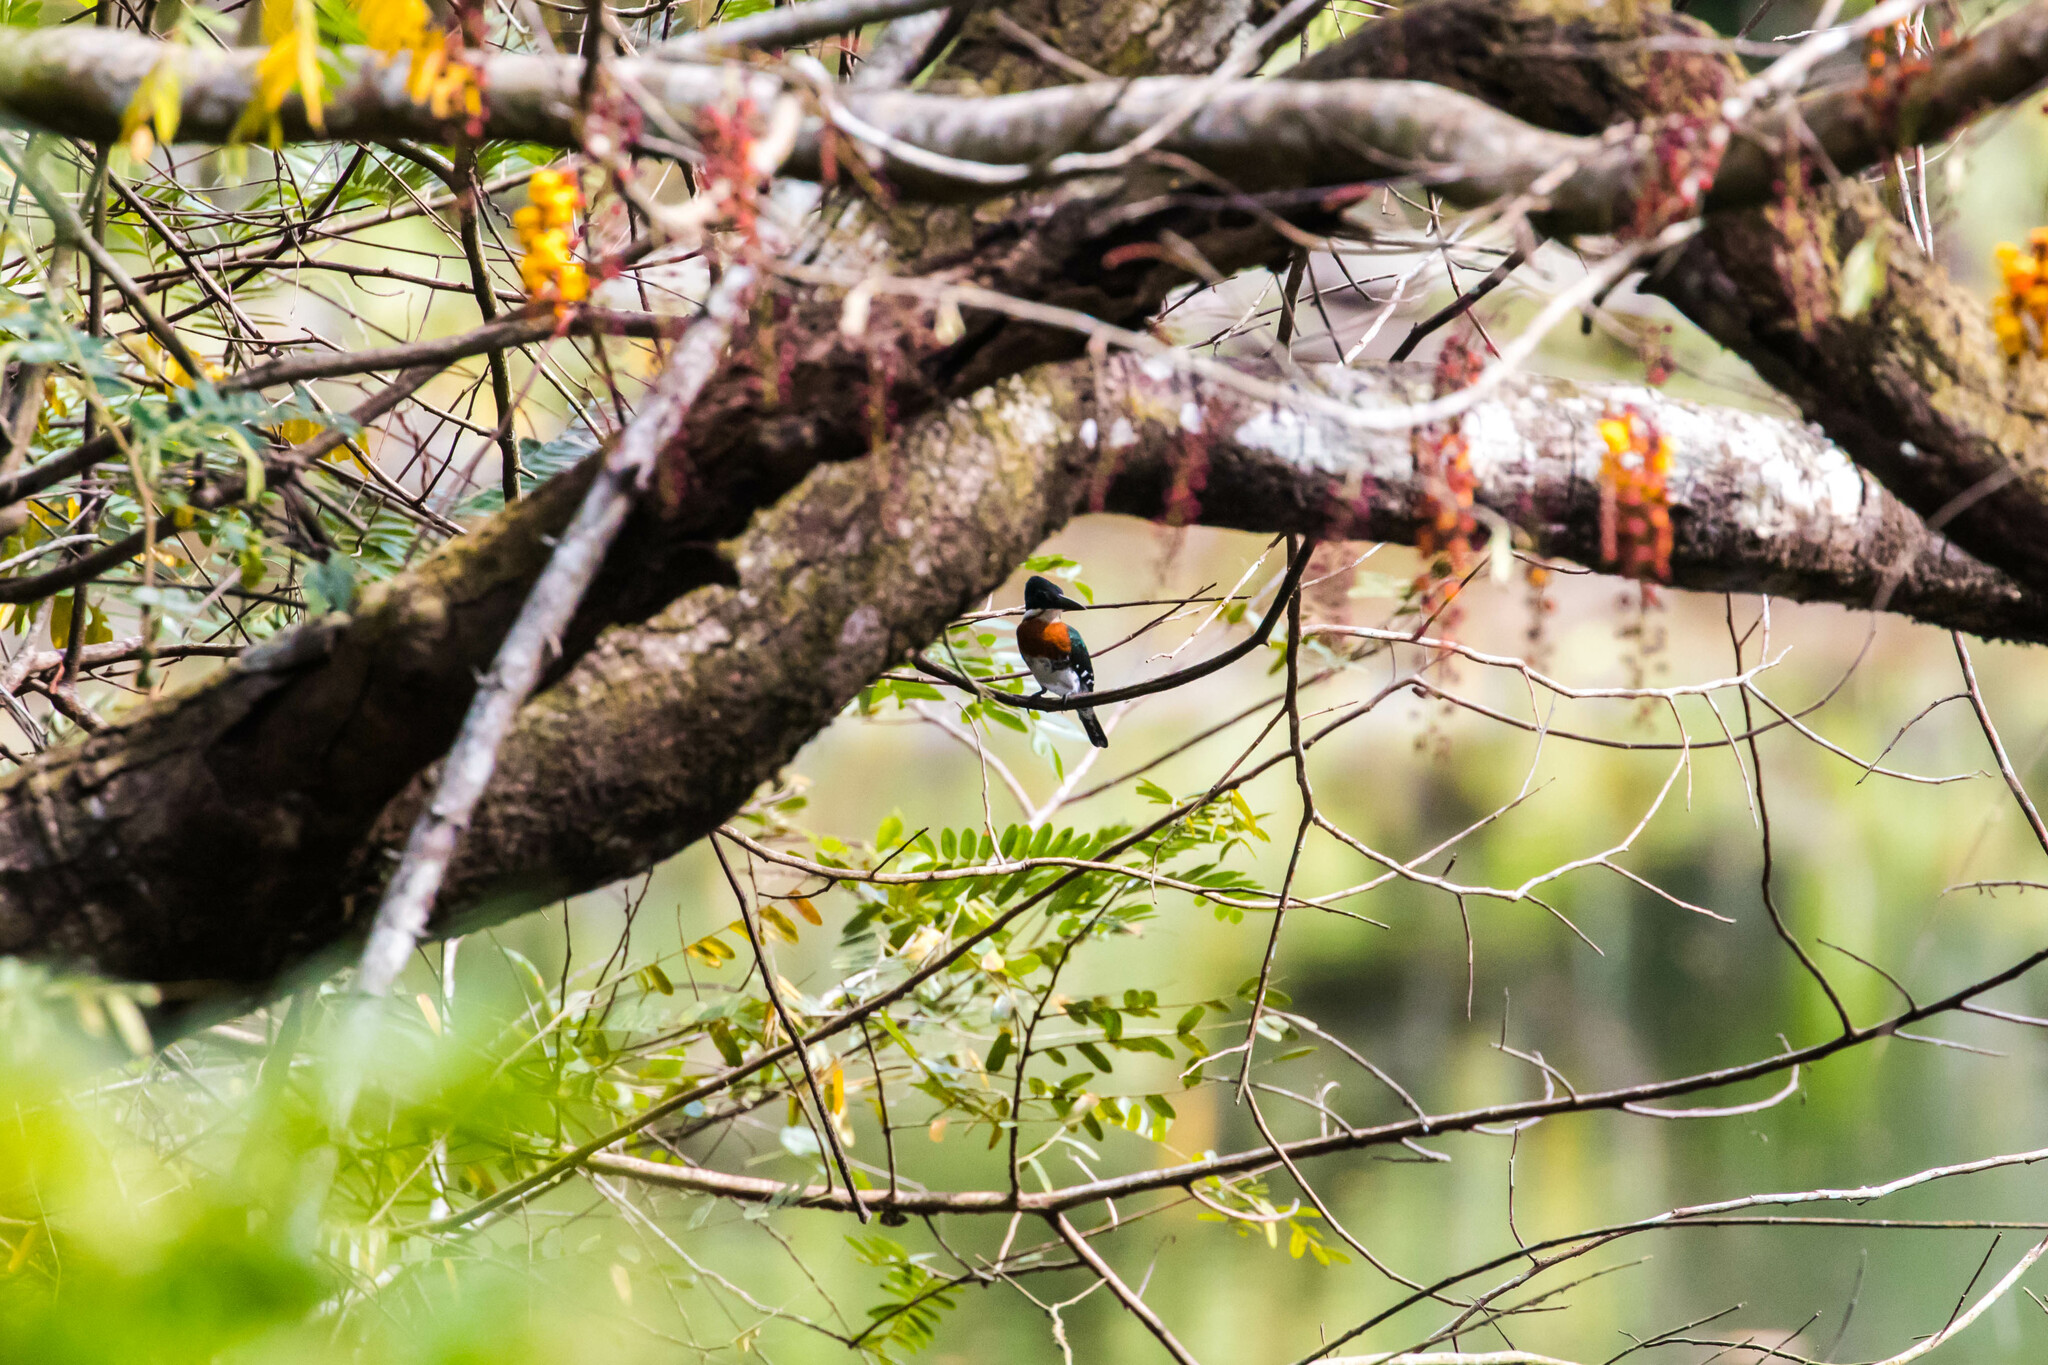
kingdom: Animalia
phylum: Chordata
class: Aves
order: Coraciiformes
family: Alcedinidae
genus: Chloroceryle
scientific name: Chloroceryle americana
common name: Green kingfisher
